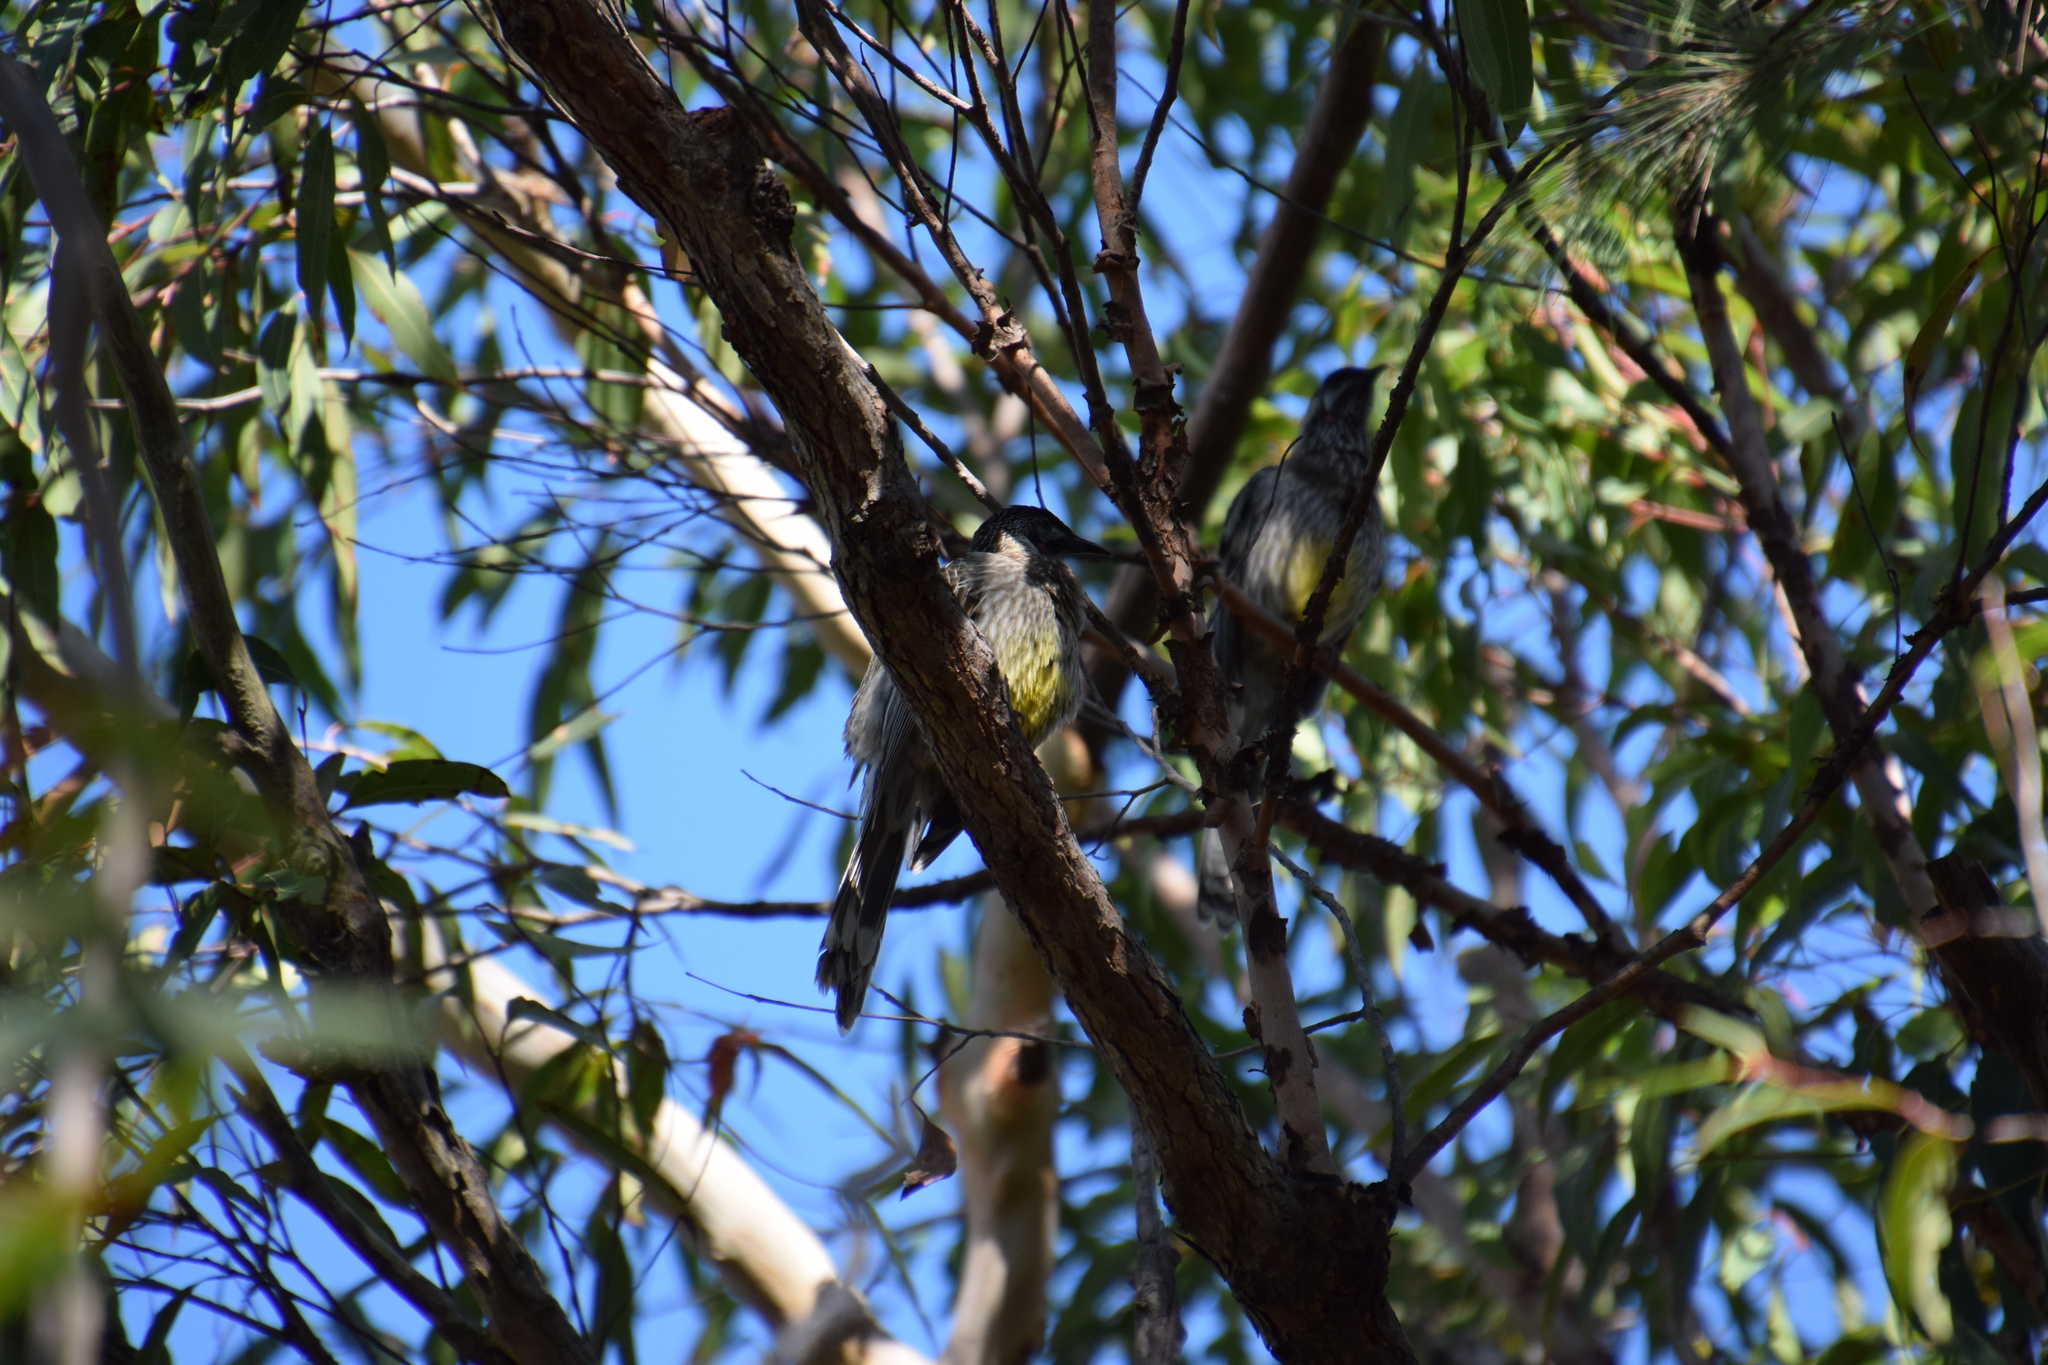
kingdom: Animalia
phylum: Chordata
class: Aves
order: Passeriformes
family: Meliphagidae
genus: Anthochaera
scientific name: Anthochaera carunculata
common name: Red wattlebird
